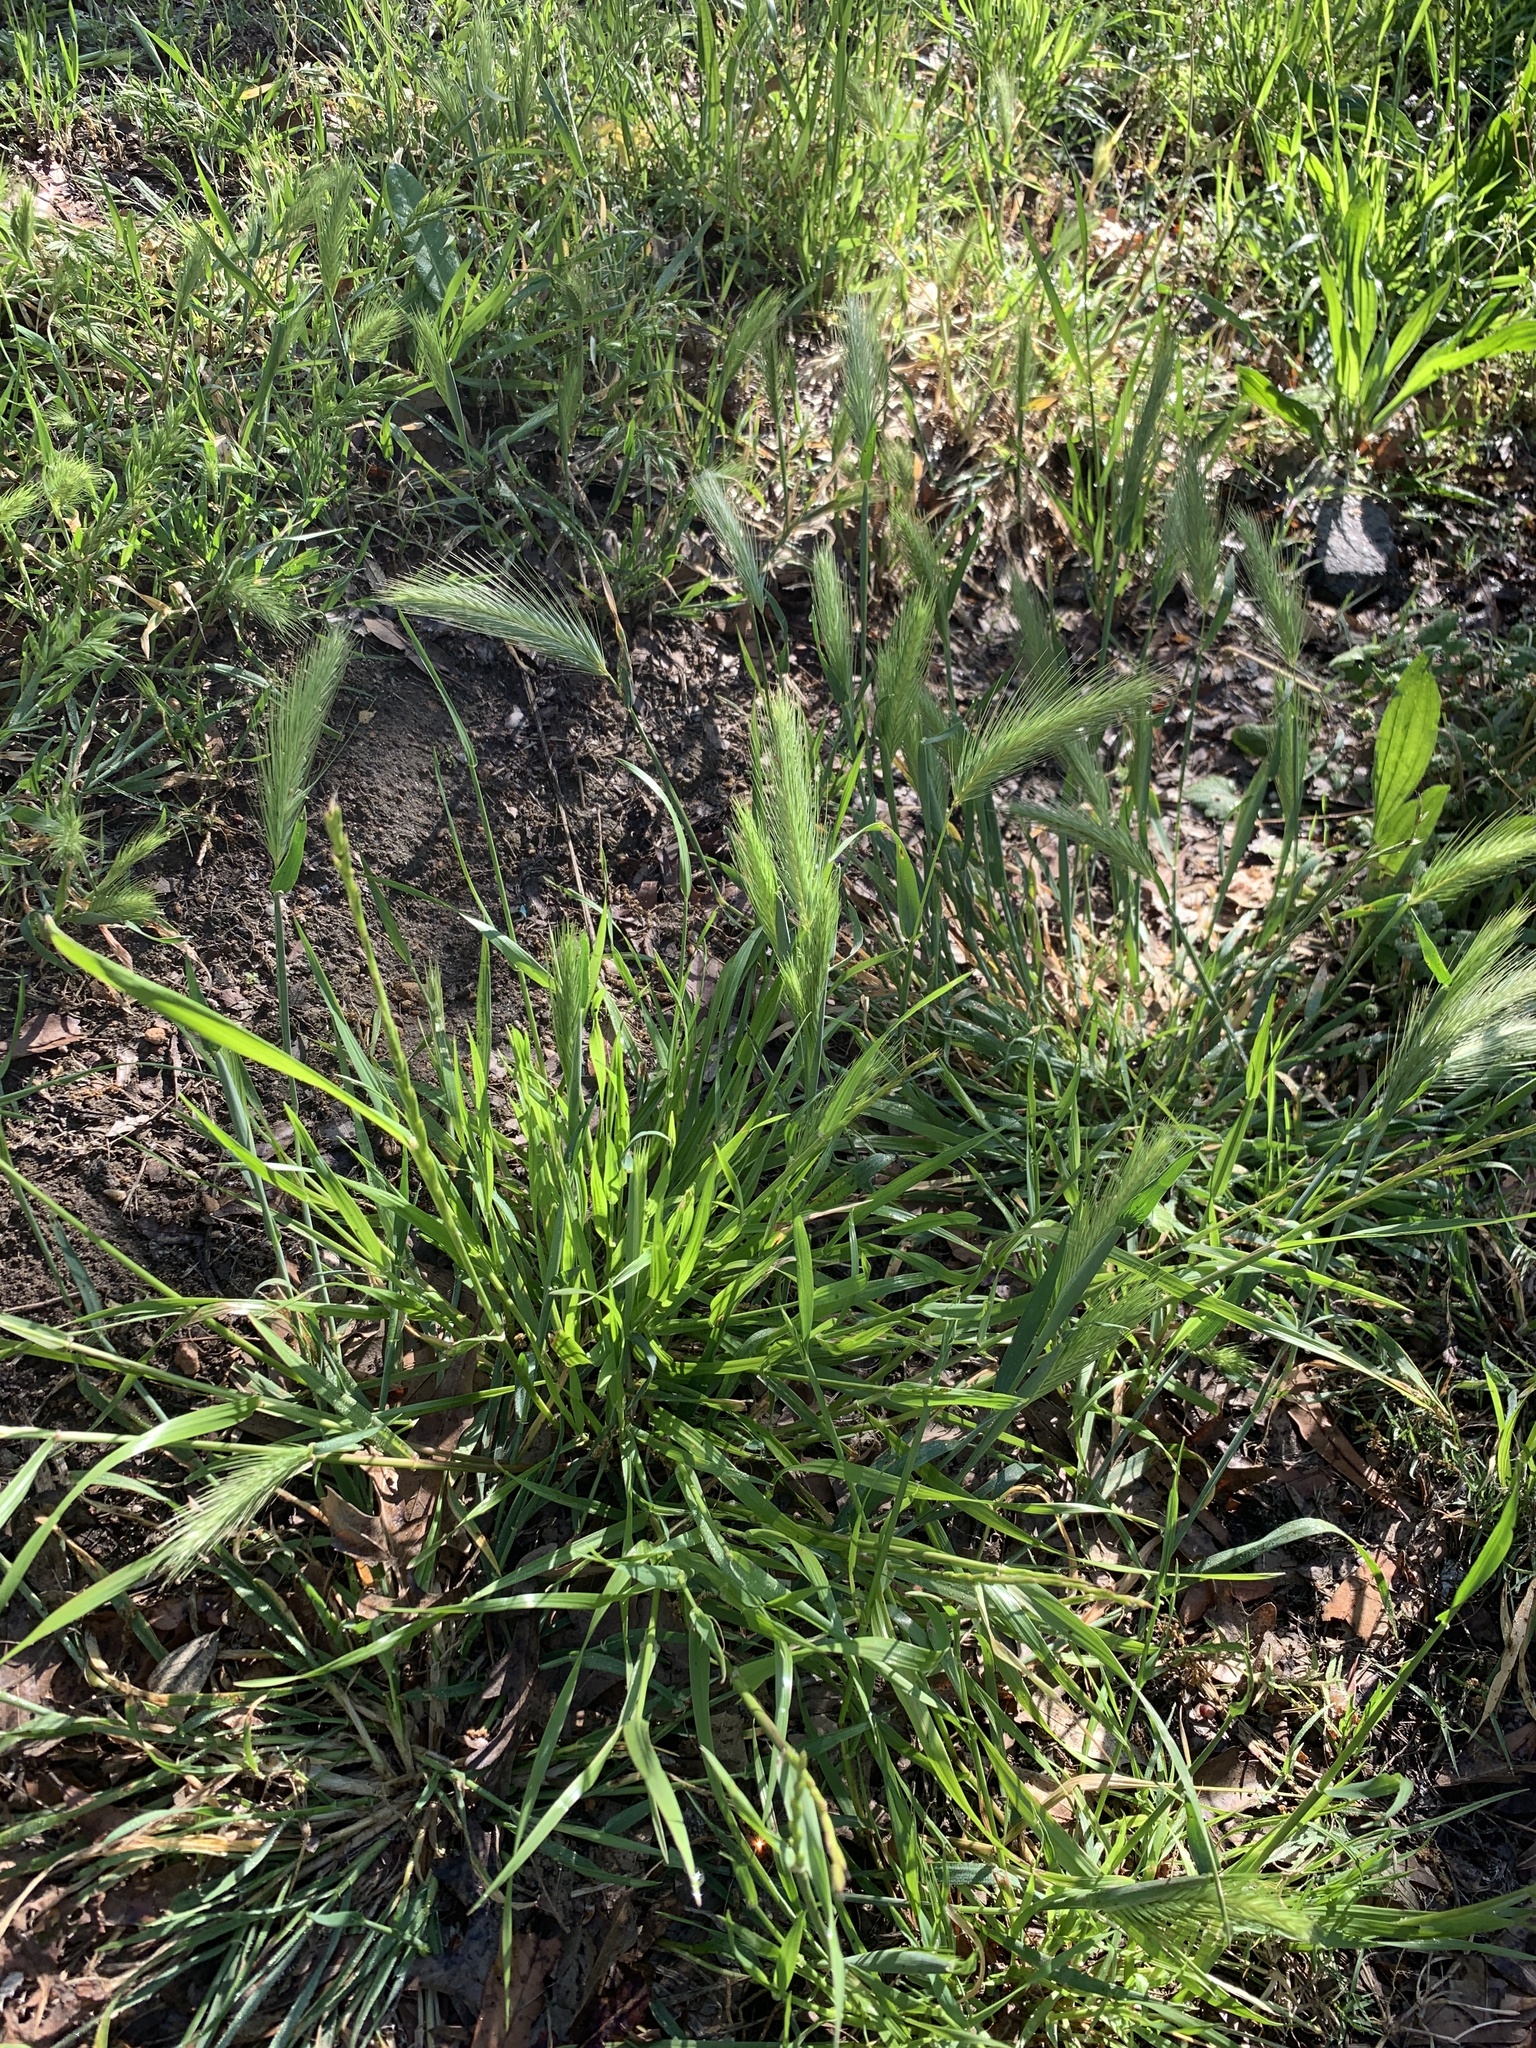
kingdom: Plantae
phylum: Tracheophyta
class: Liliopsida
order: Poales
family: Poaceae
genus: Hordeum
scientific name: Hordeum murinum
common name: Wall barley
